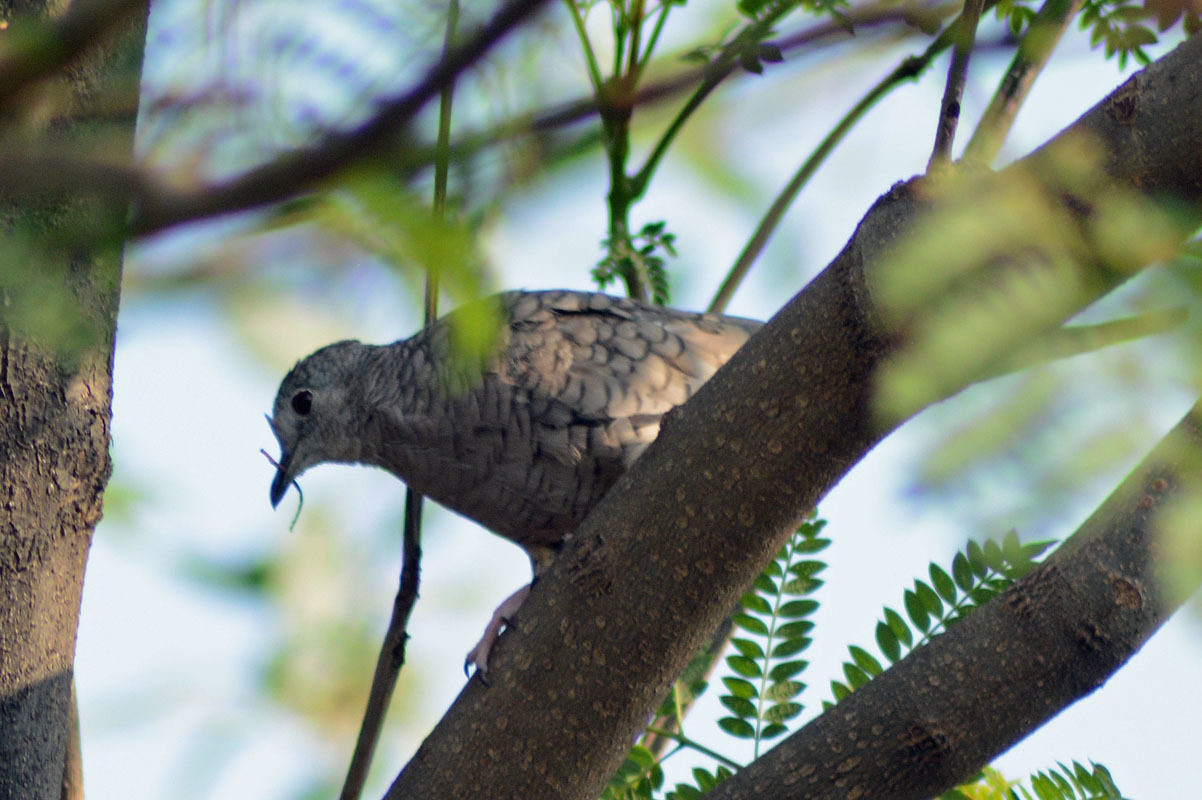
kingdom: Animalia
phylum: Chordata
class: Aves
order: Columbiformes
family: Columbidae
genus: Columbina
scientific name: Columbina inca
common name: Inca dove
